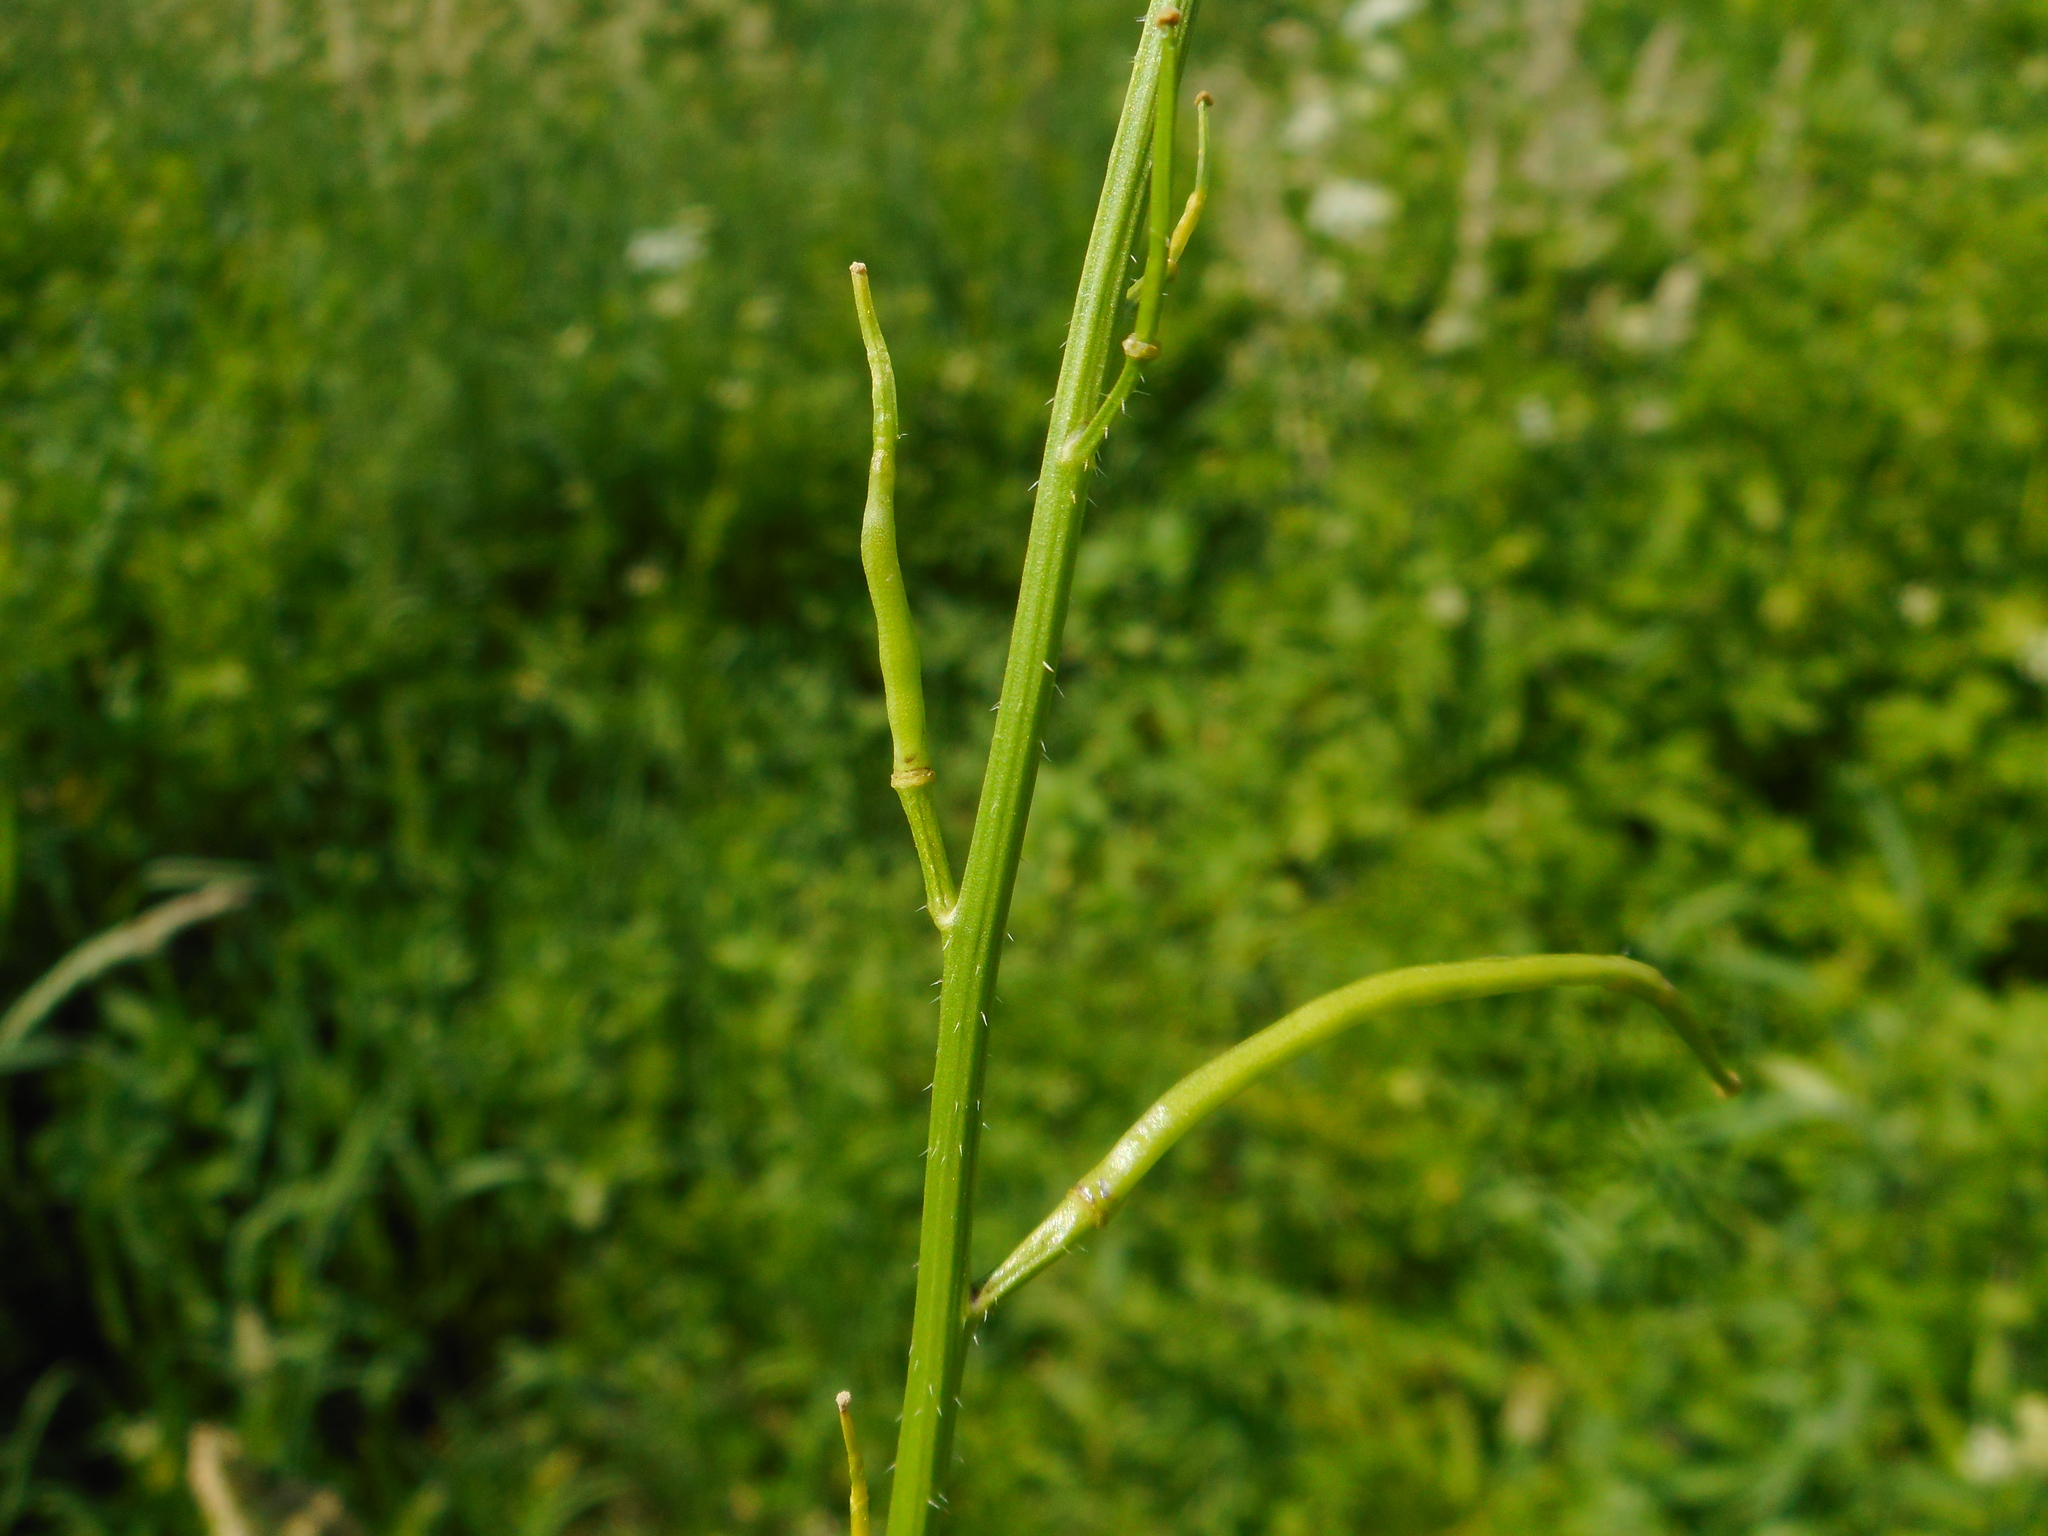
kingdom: Plantae
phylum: Tracheophyta
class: Magnoliopsida
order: Brassicales
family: Brassicaceae
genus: Sinapis
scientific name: Sinapis arvensis
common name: Charlock
